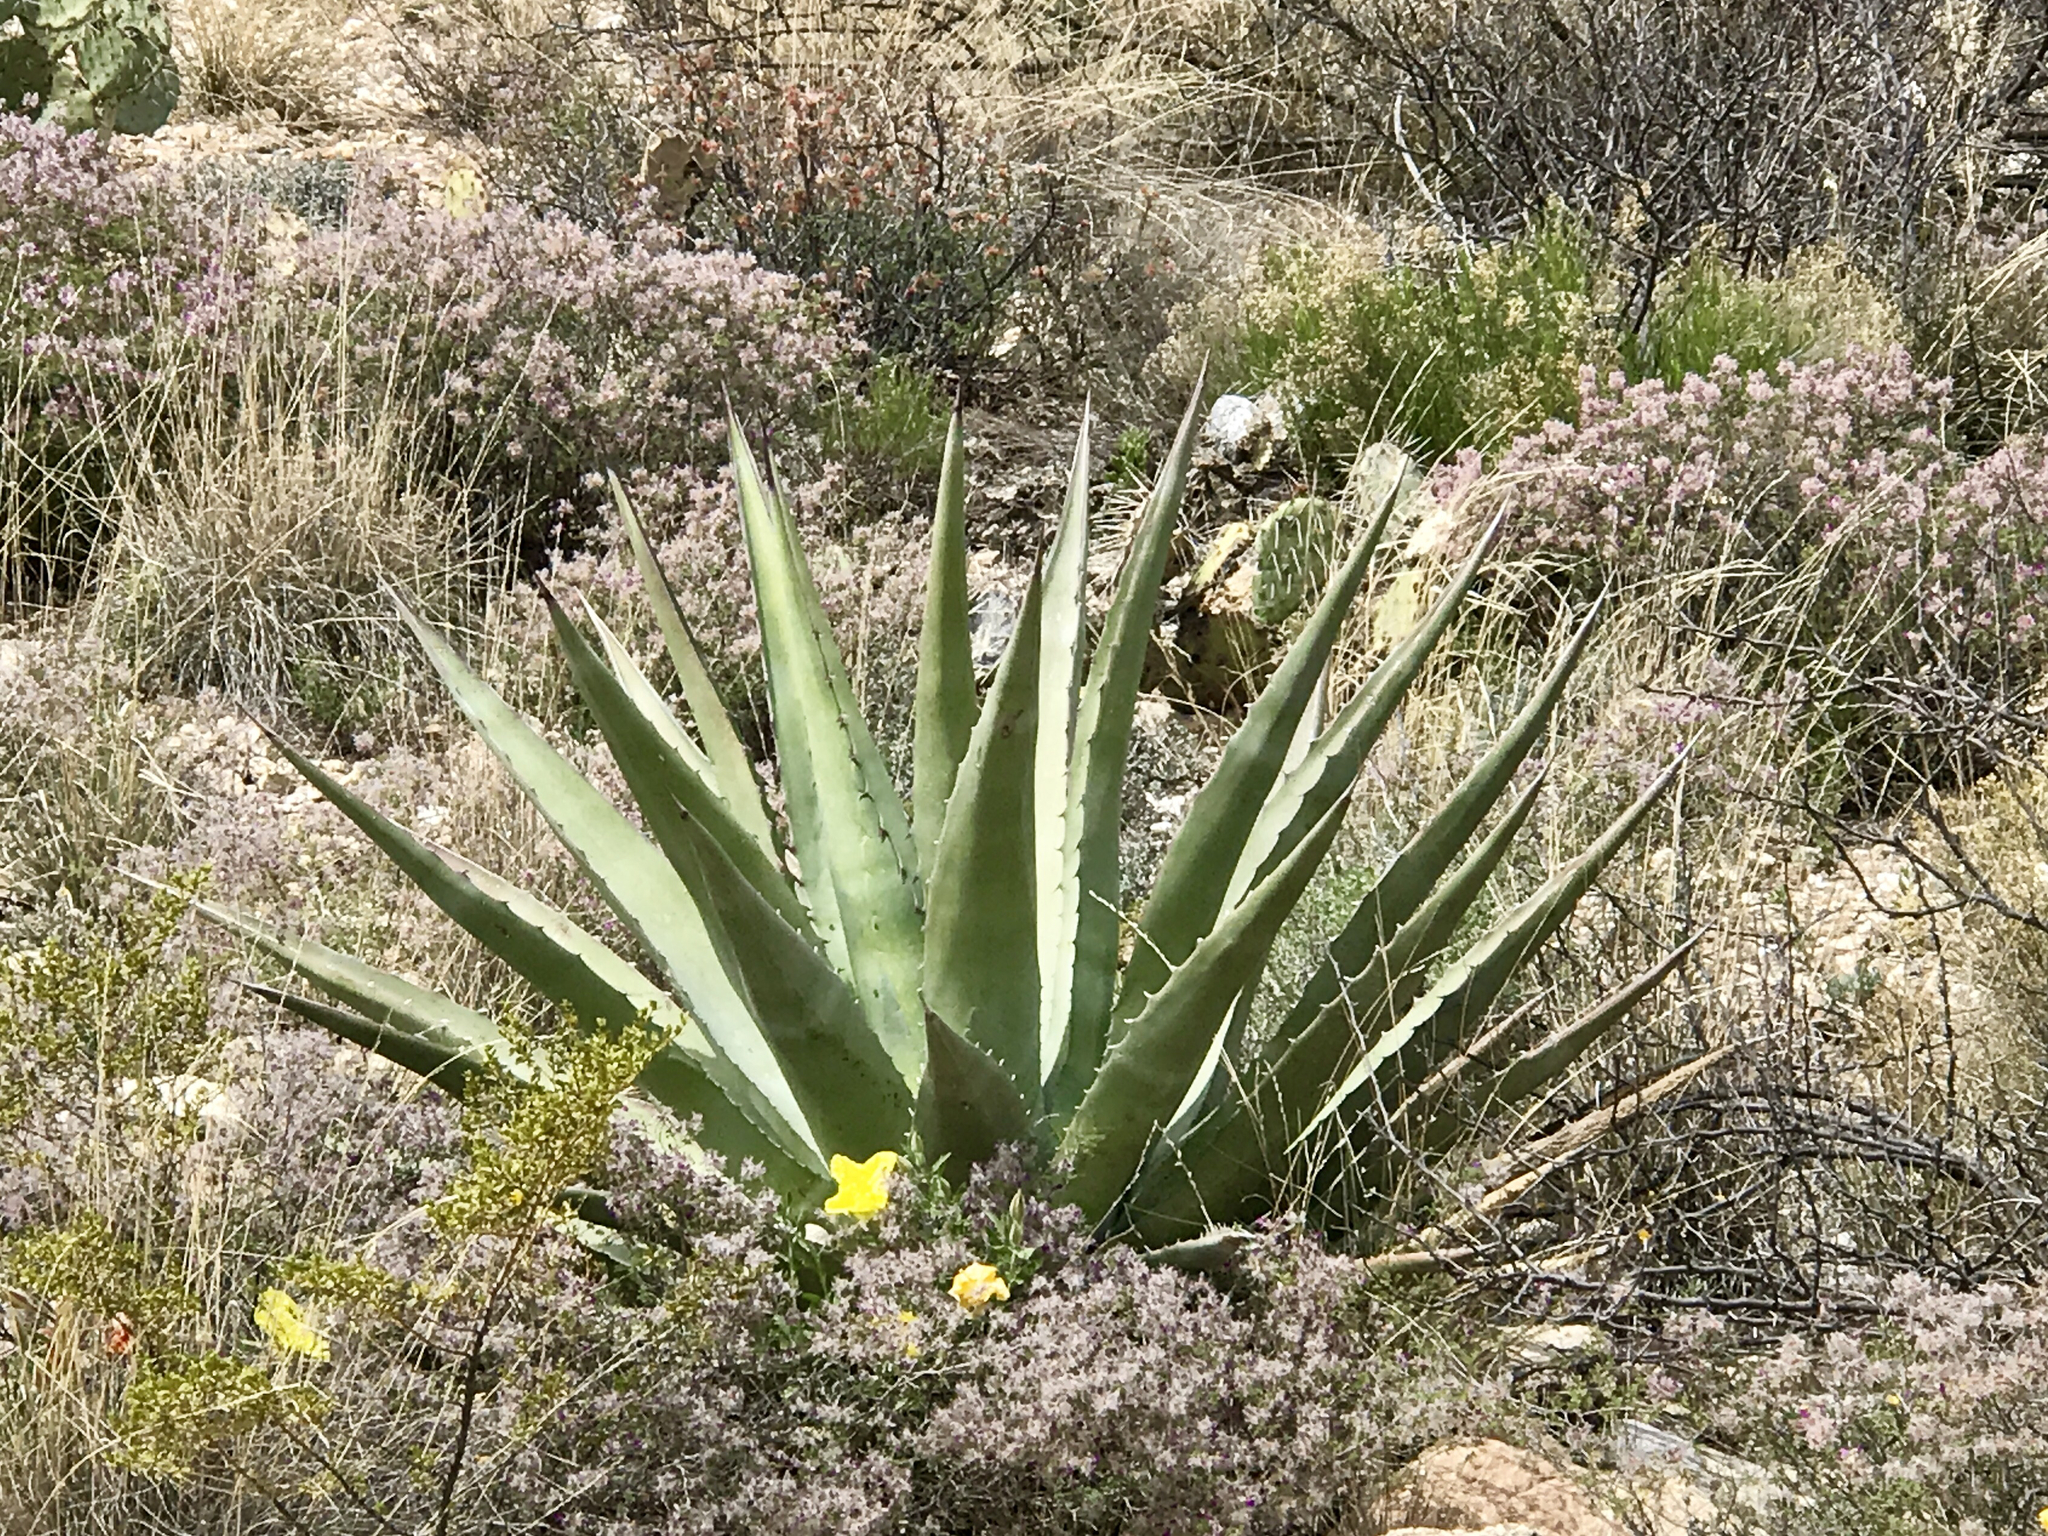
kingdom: Plantae
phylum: Tracheophyta
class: Liliopsida
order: Asparagales
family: Asparagaceae
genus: Agave
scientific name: Agave palmeri
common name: Palmer agave
